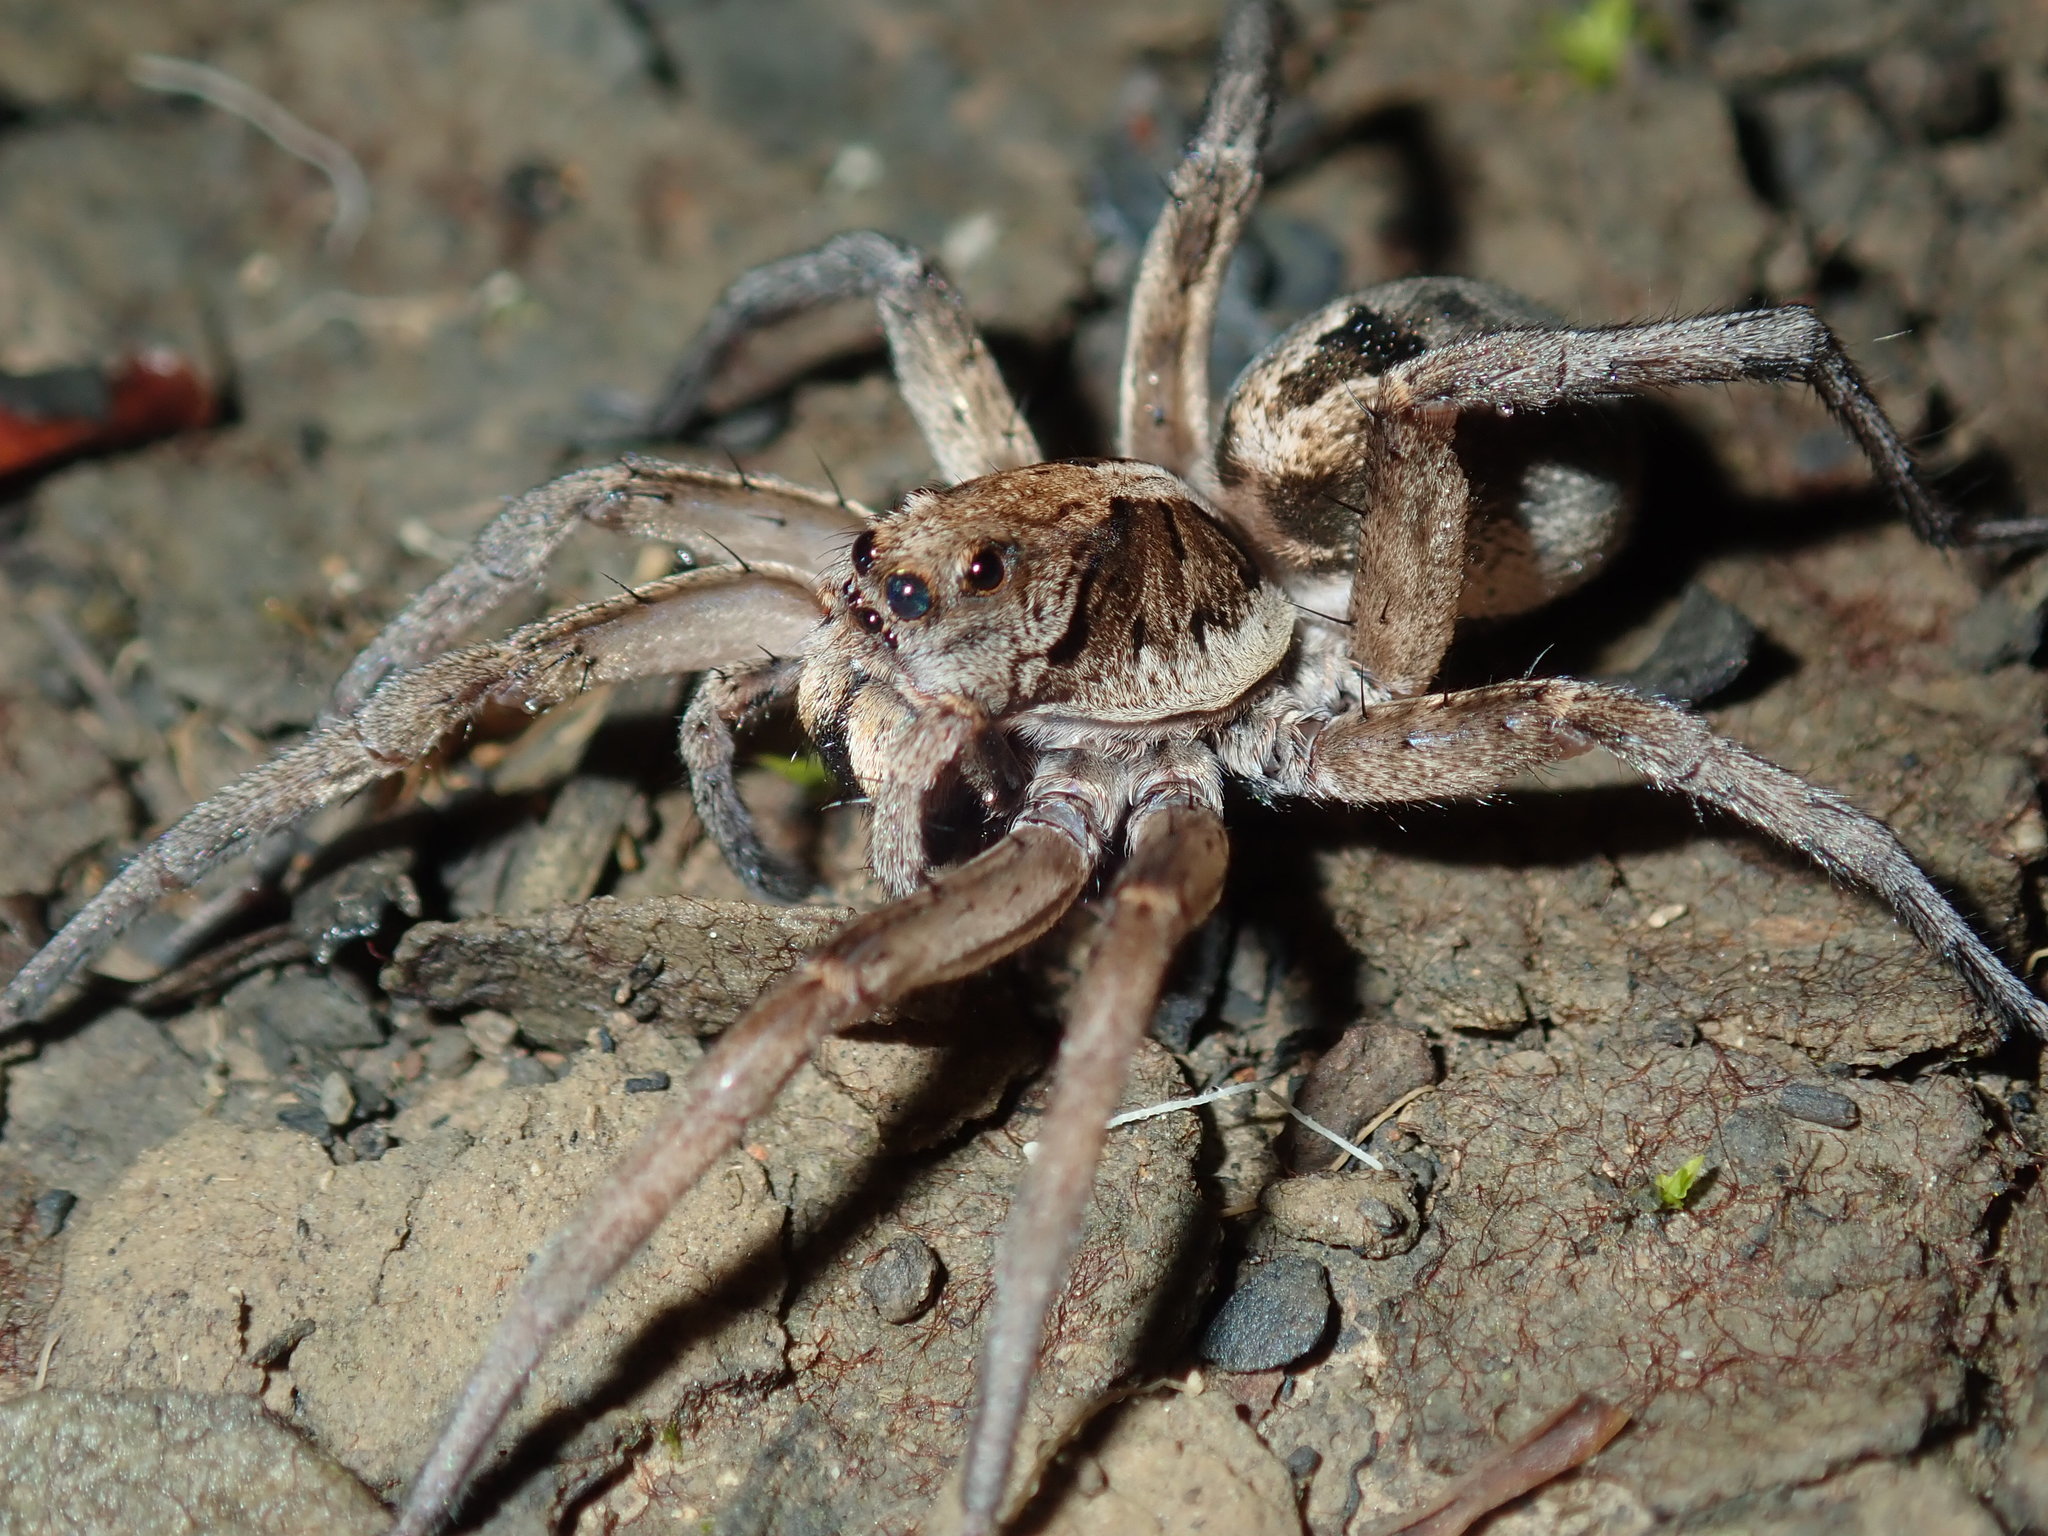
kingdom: Animalia
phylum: Arthropoda
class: Arachnida
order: Araneae
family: Lycosidae
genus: Venator
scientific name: Venator spenceri
